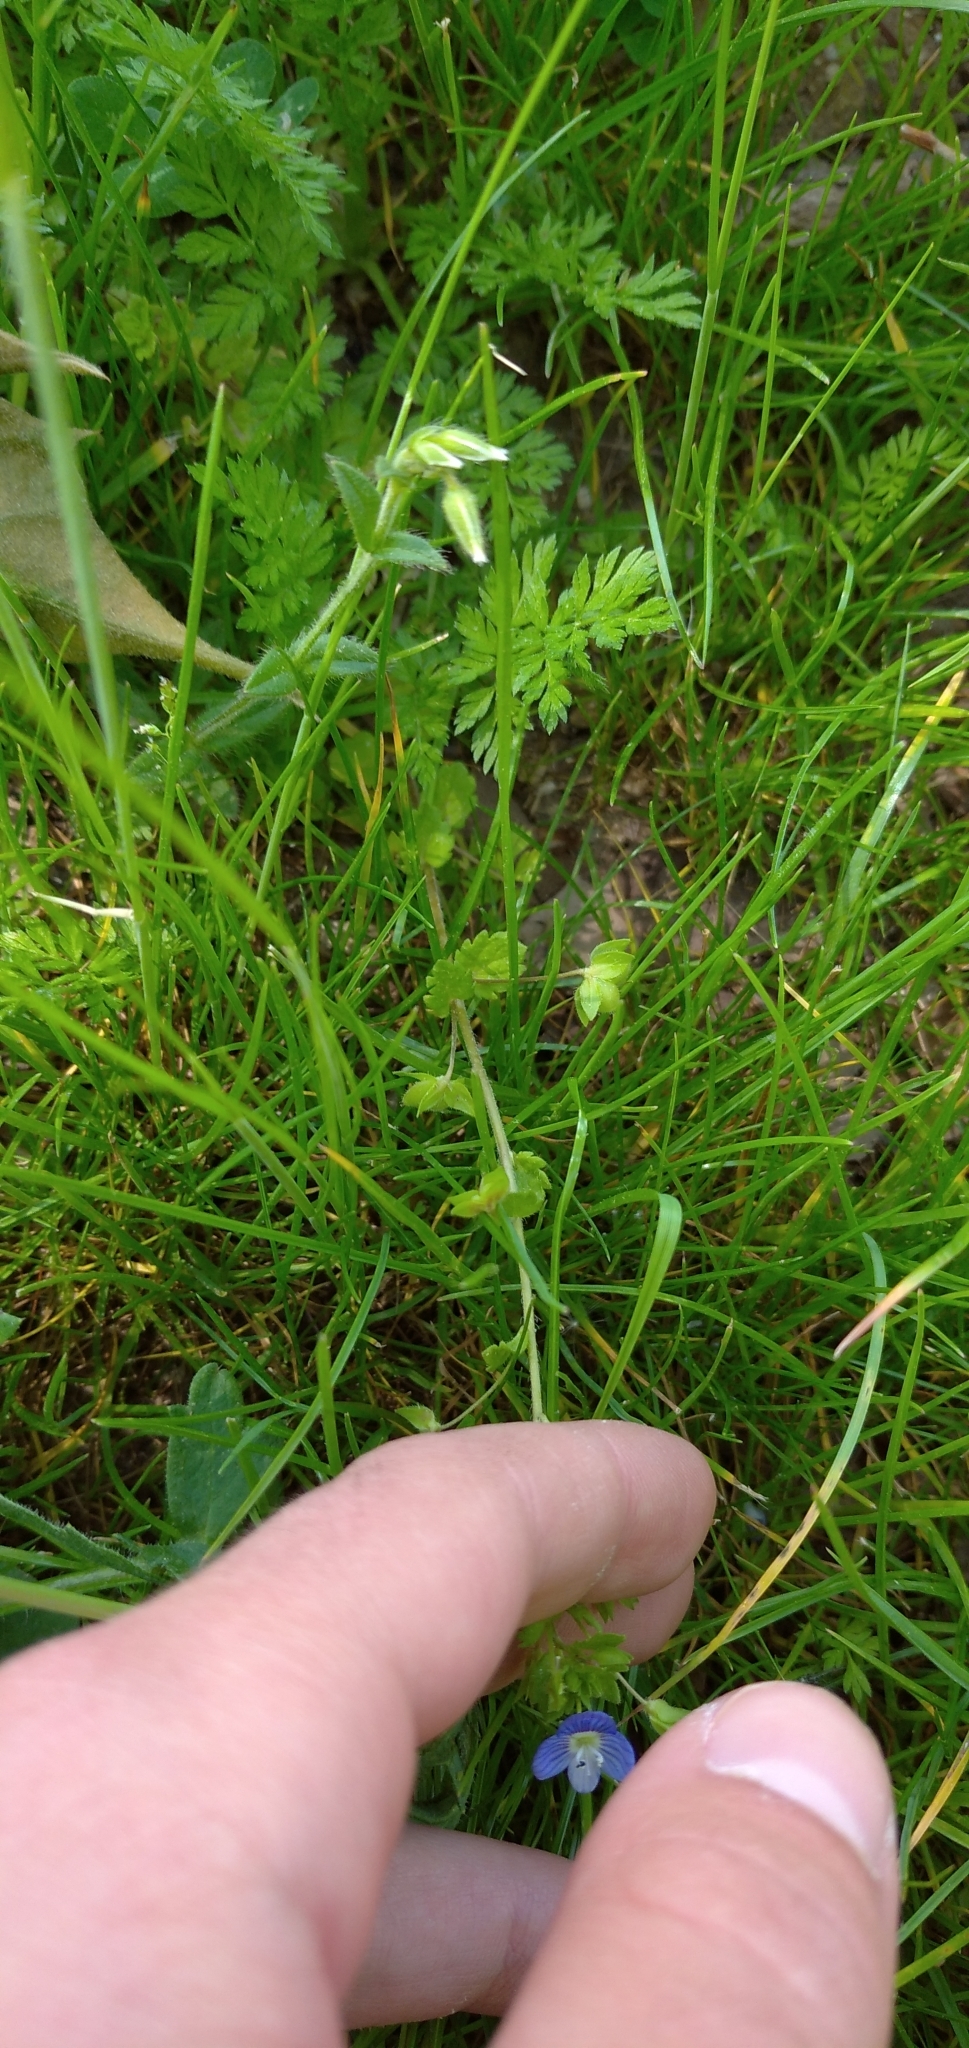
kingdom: Plantae
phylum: Tracheophyta
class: Magnoliopsida
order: Lamiales
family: Plantaginaceae
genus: Veronica
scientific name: Veronica persica
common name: Common field-speedwell
